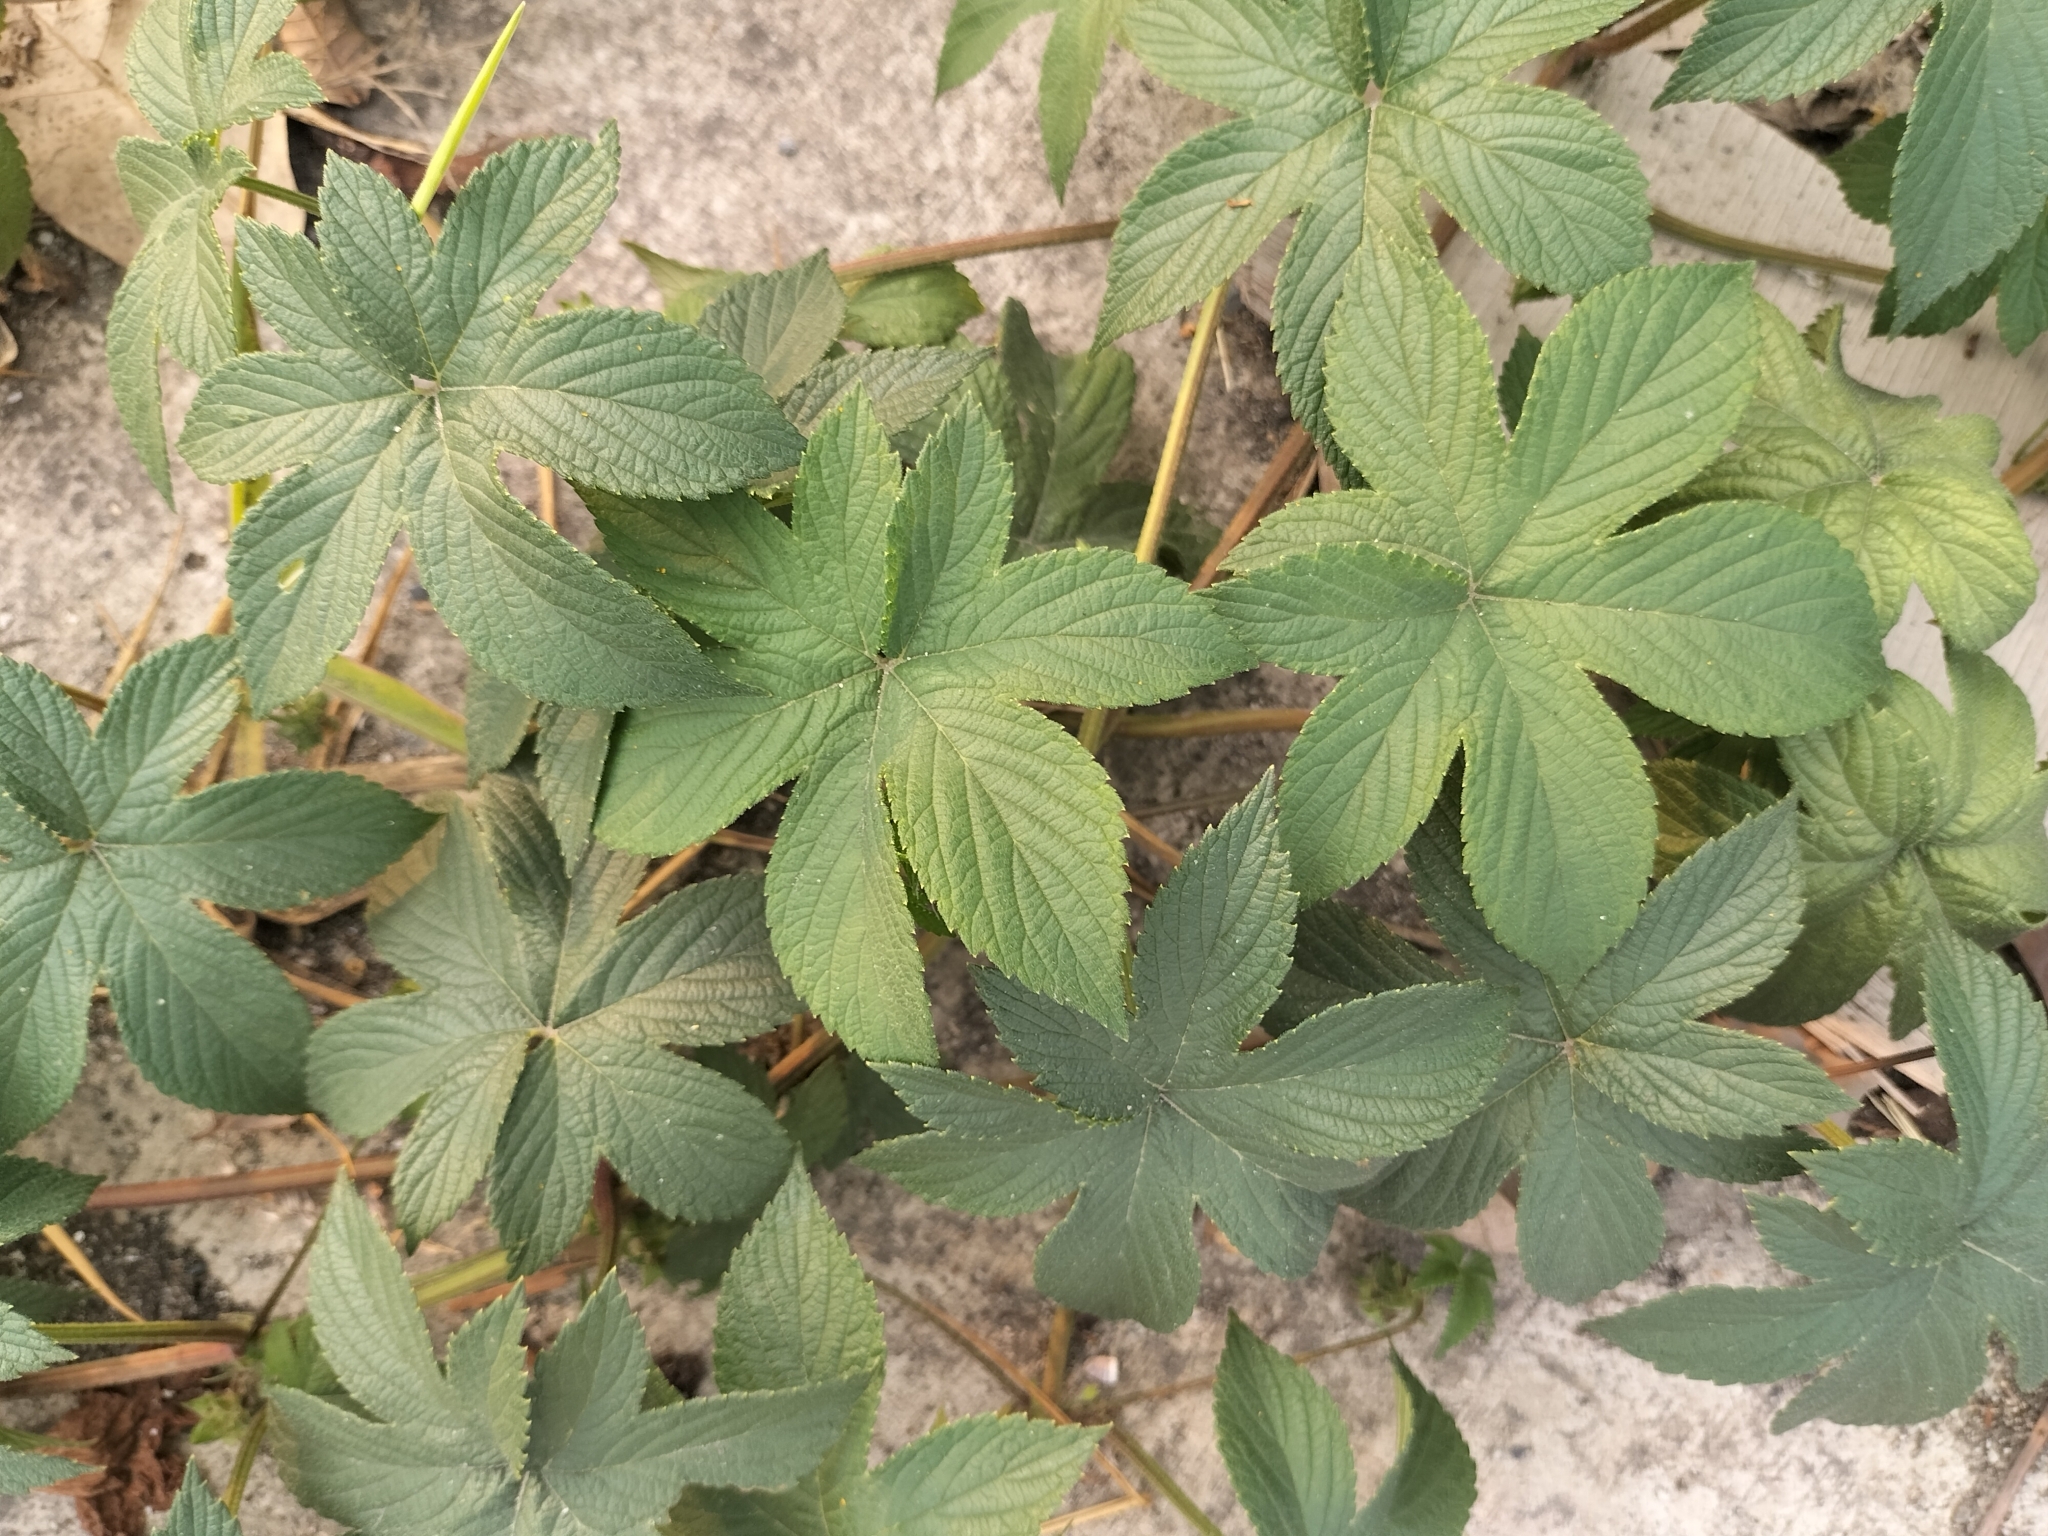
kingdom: Plantae
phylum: Tracheophyta
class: Magnoliopsida
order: Rosales
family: Cannabaceae
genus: Humulus
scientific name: Humulus scandens
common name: Japanese hop
